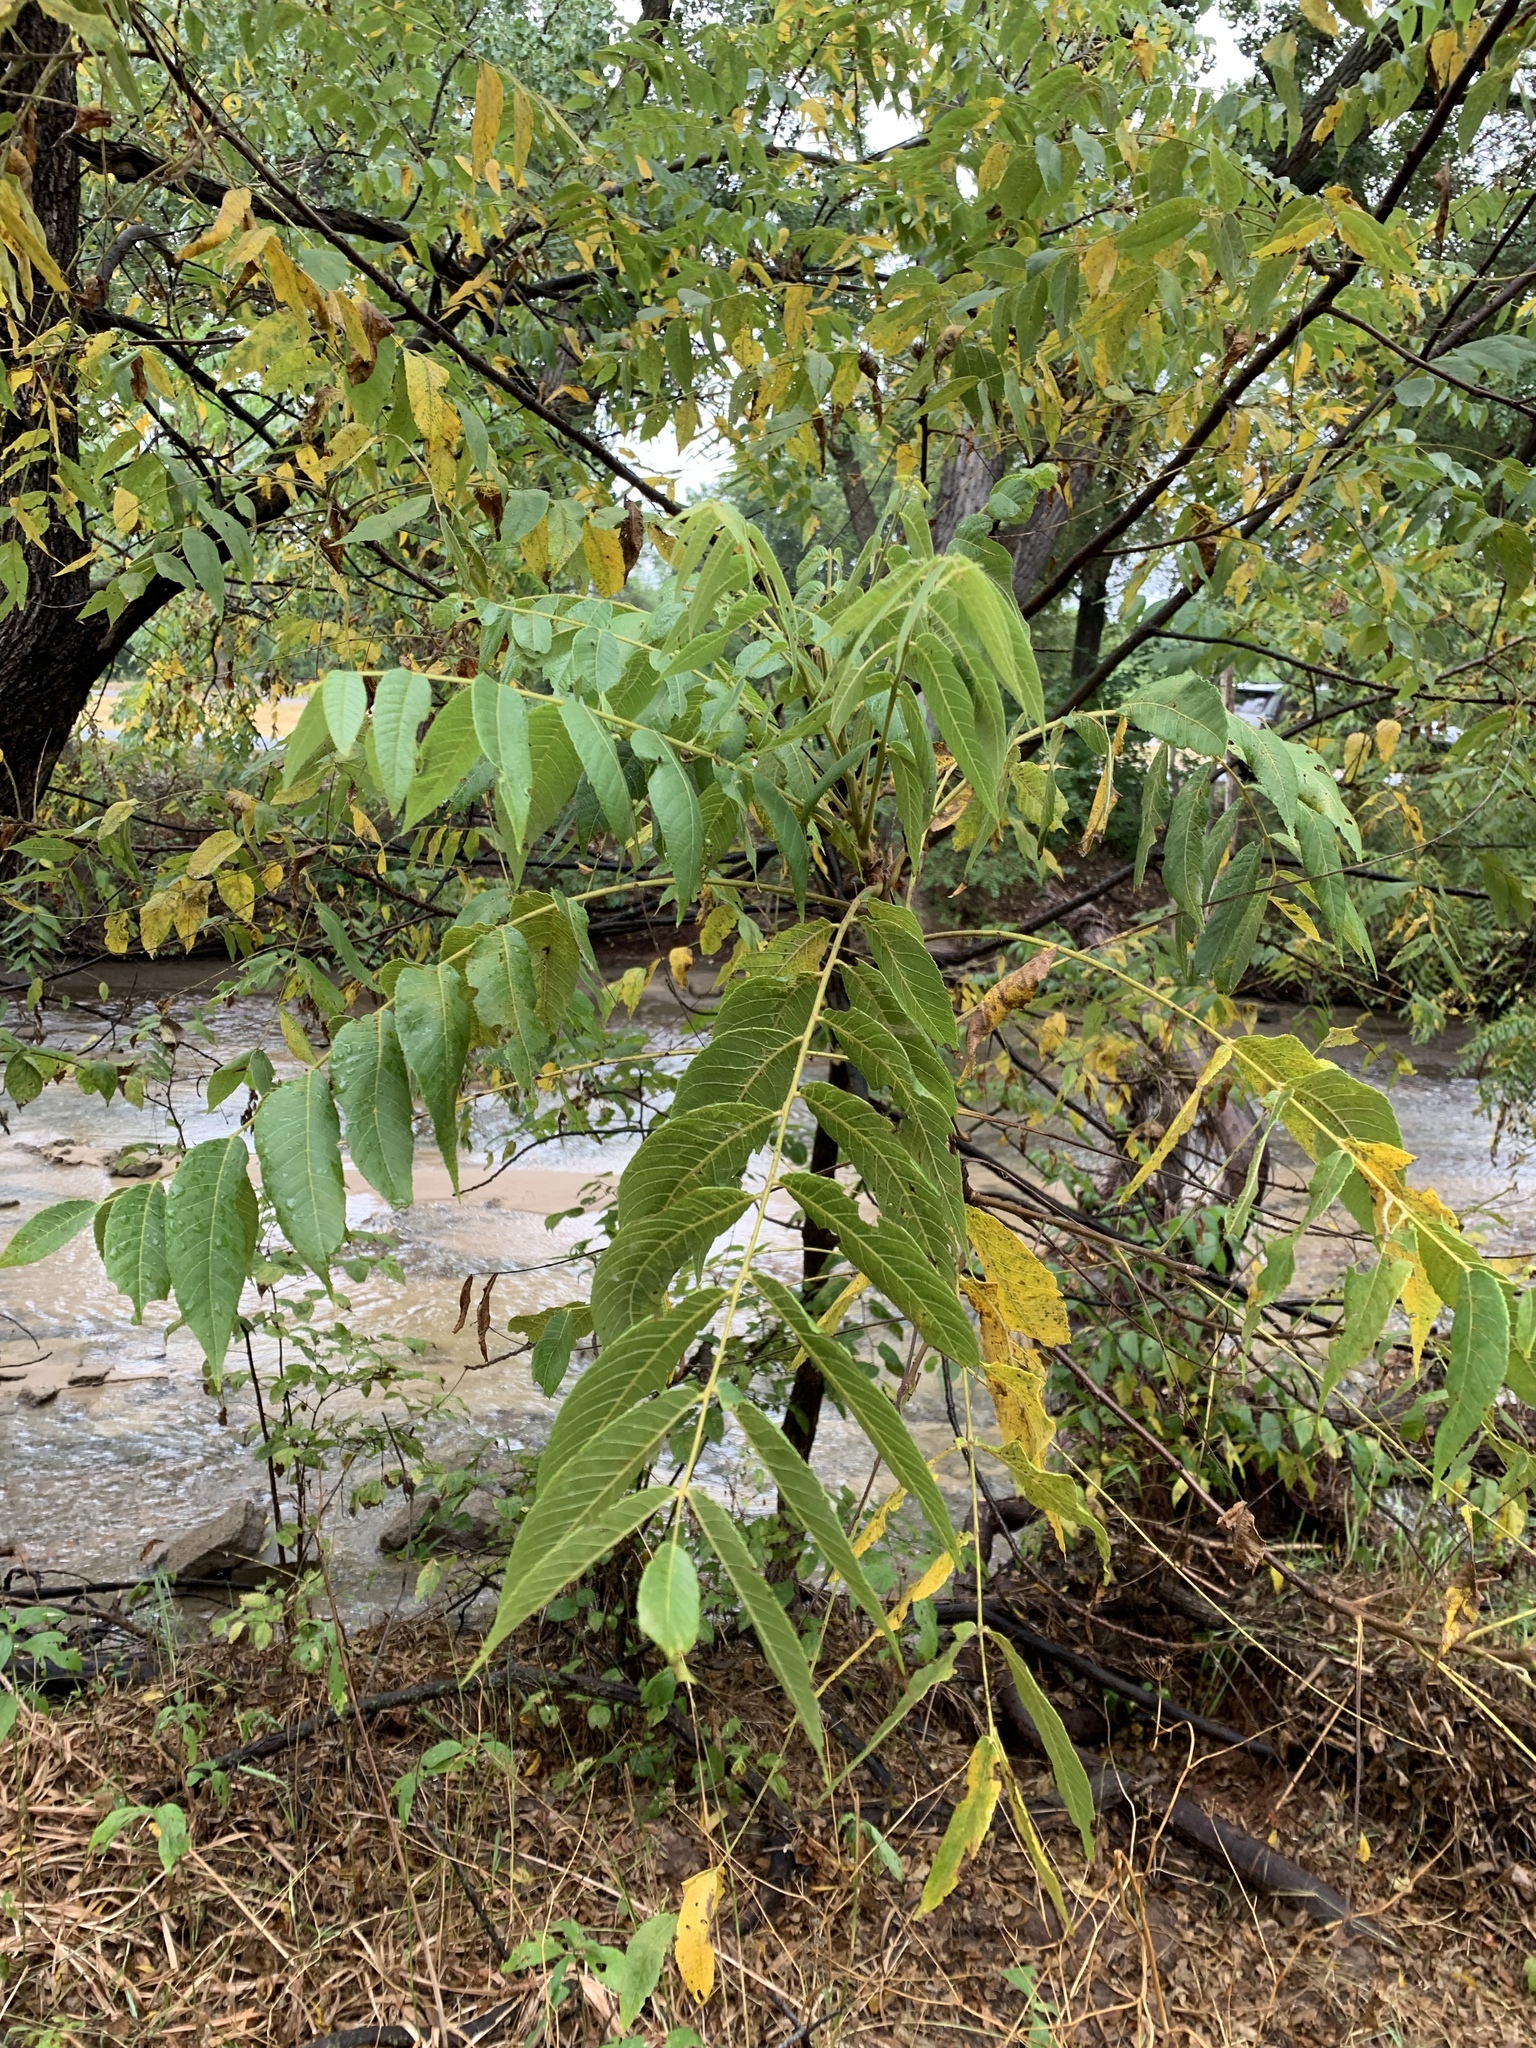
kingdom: Plantae
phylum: Tracheophyta
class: Magnoliopsida
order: Fagales
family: Juglandaceae
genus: Juglans
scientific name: Juglans nigra
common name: Black walnut
